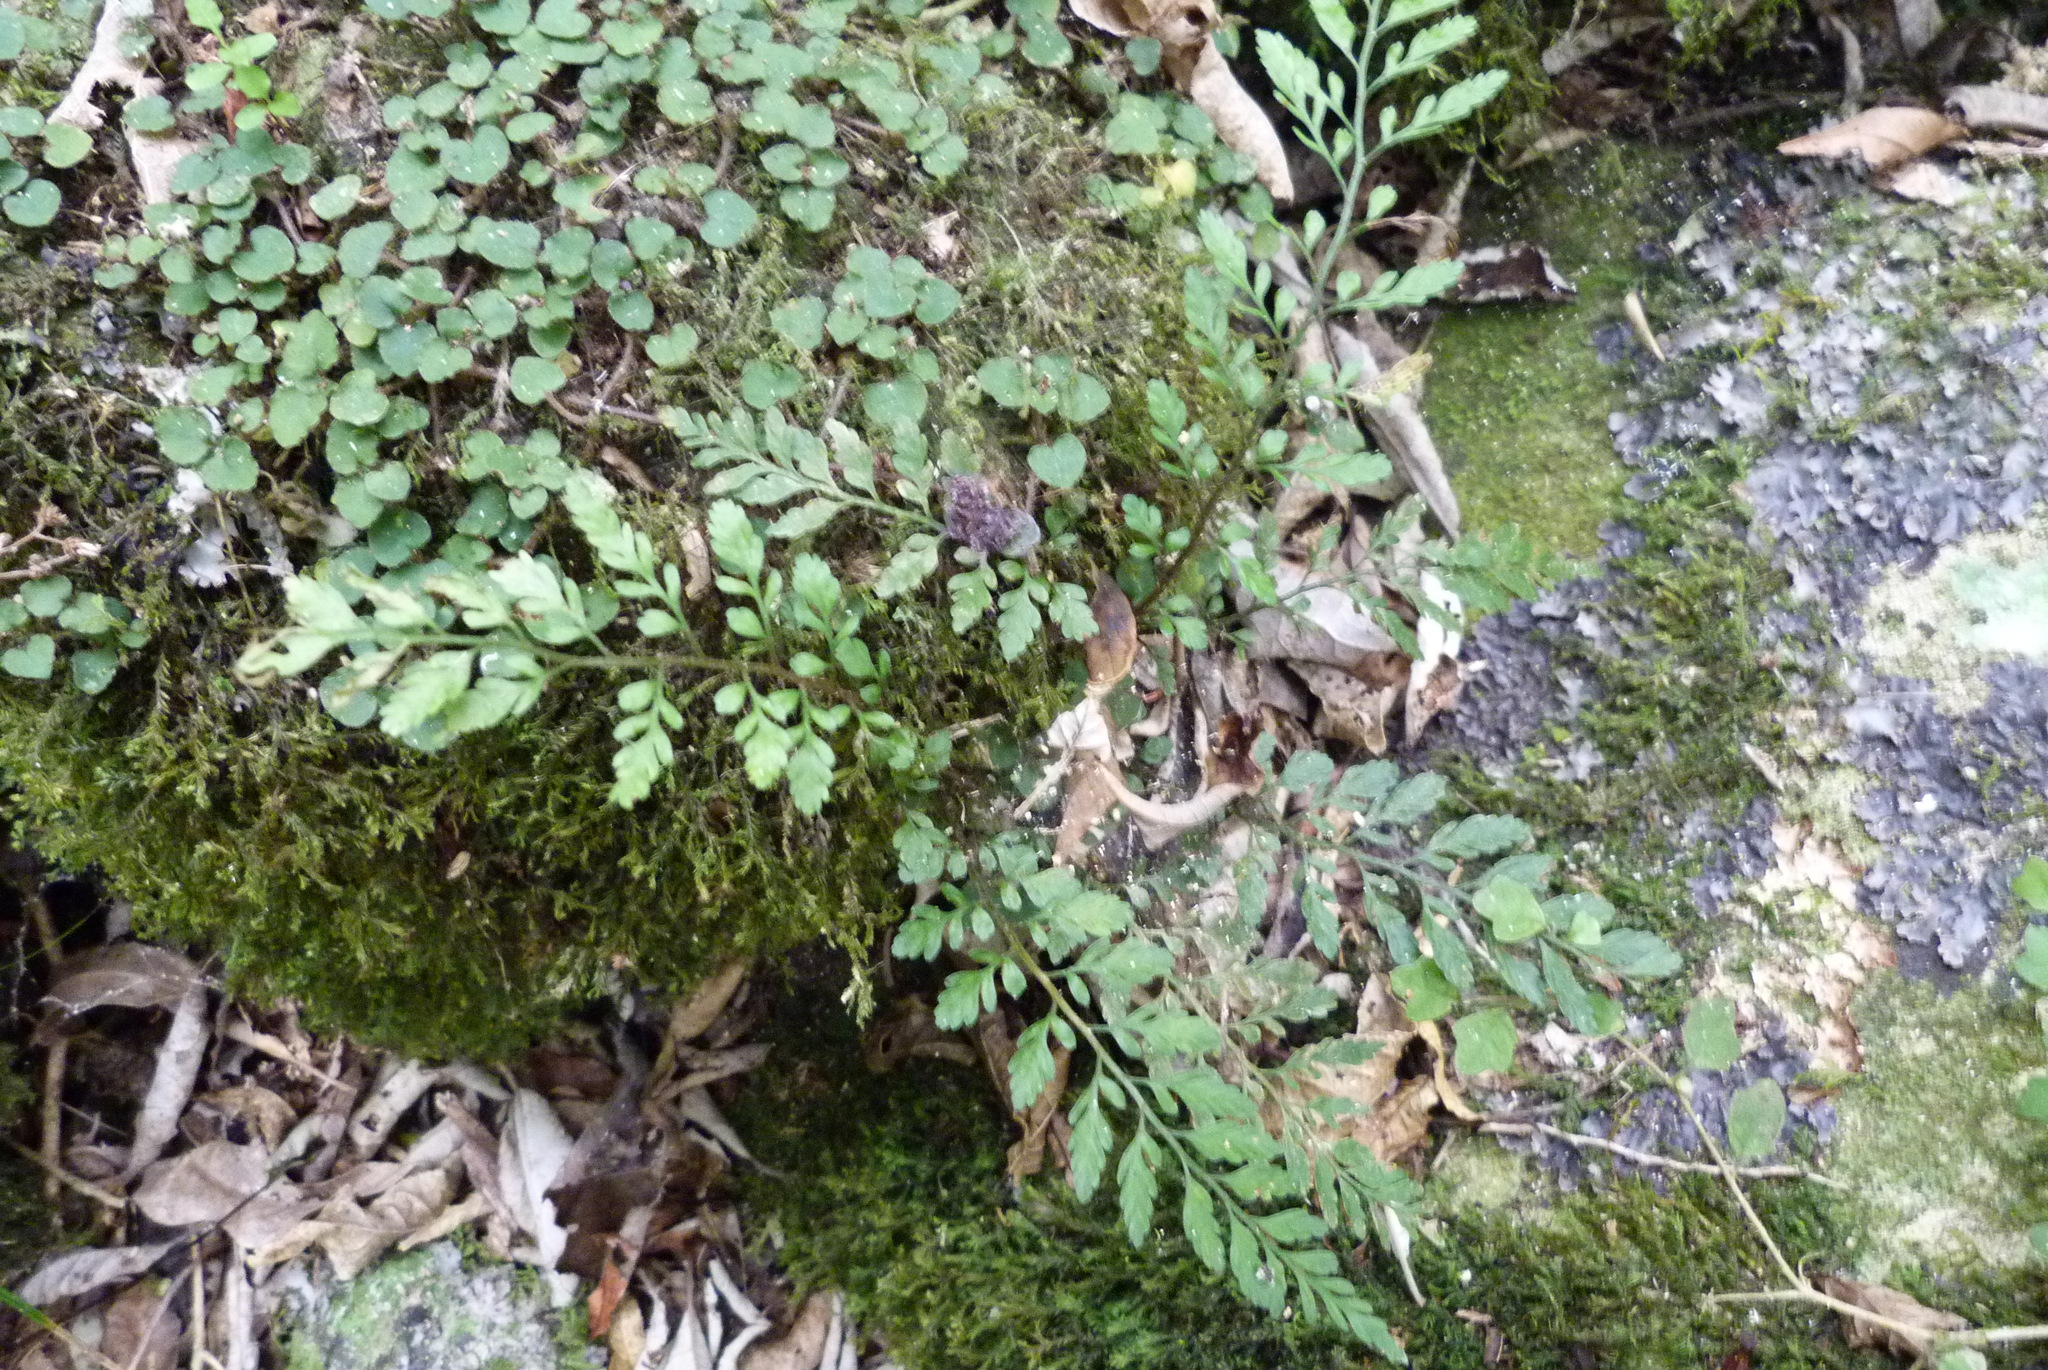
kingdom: Plantae
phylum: Tracheophyta
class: Polypodiopsida
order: Polypodiales
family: Aspleniaceae
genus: Asplenium
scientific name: Asplenium hookerianum
